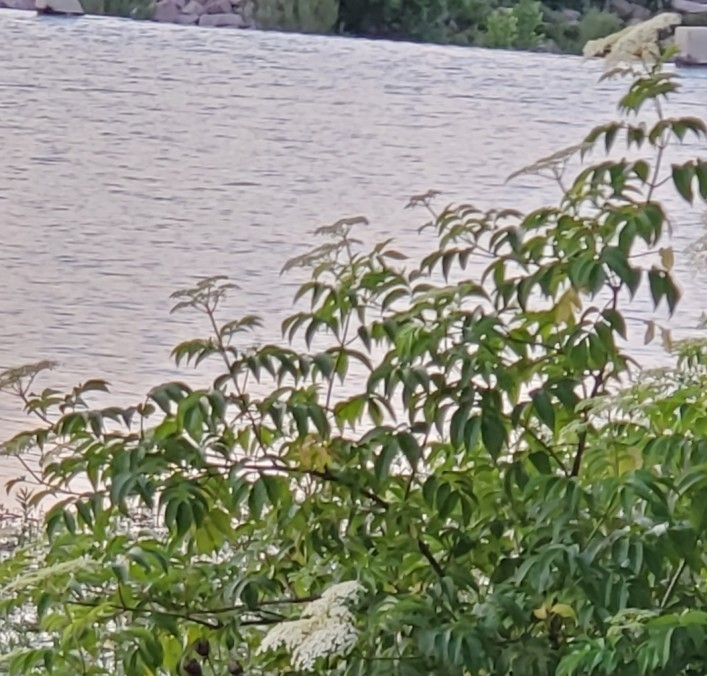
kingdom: Plantae
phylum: Tracheophyta
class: Magnoliopsida
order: Dipsacales
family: Viburnaceae
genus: Sambucus
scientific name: Sambucus canadensis
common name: American elder
